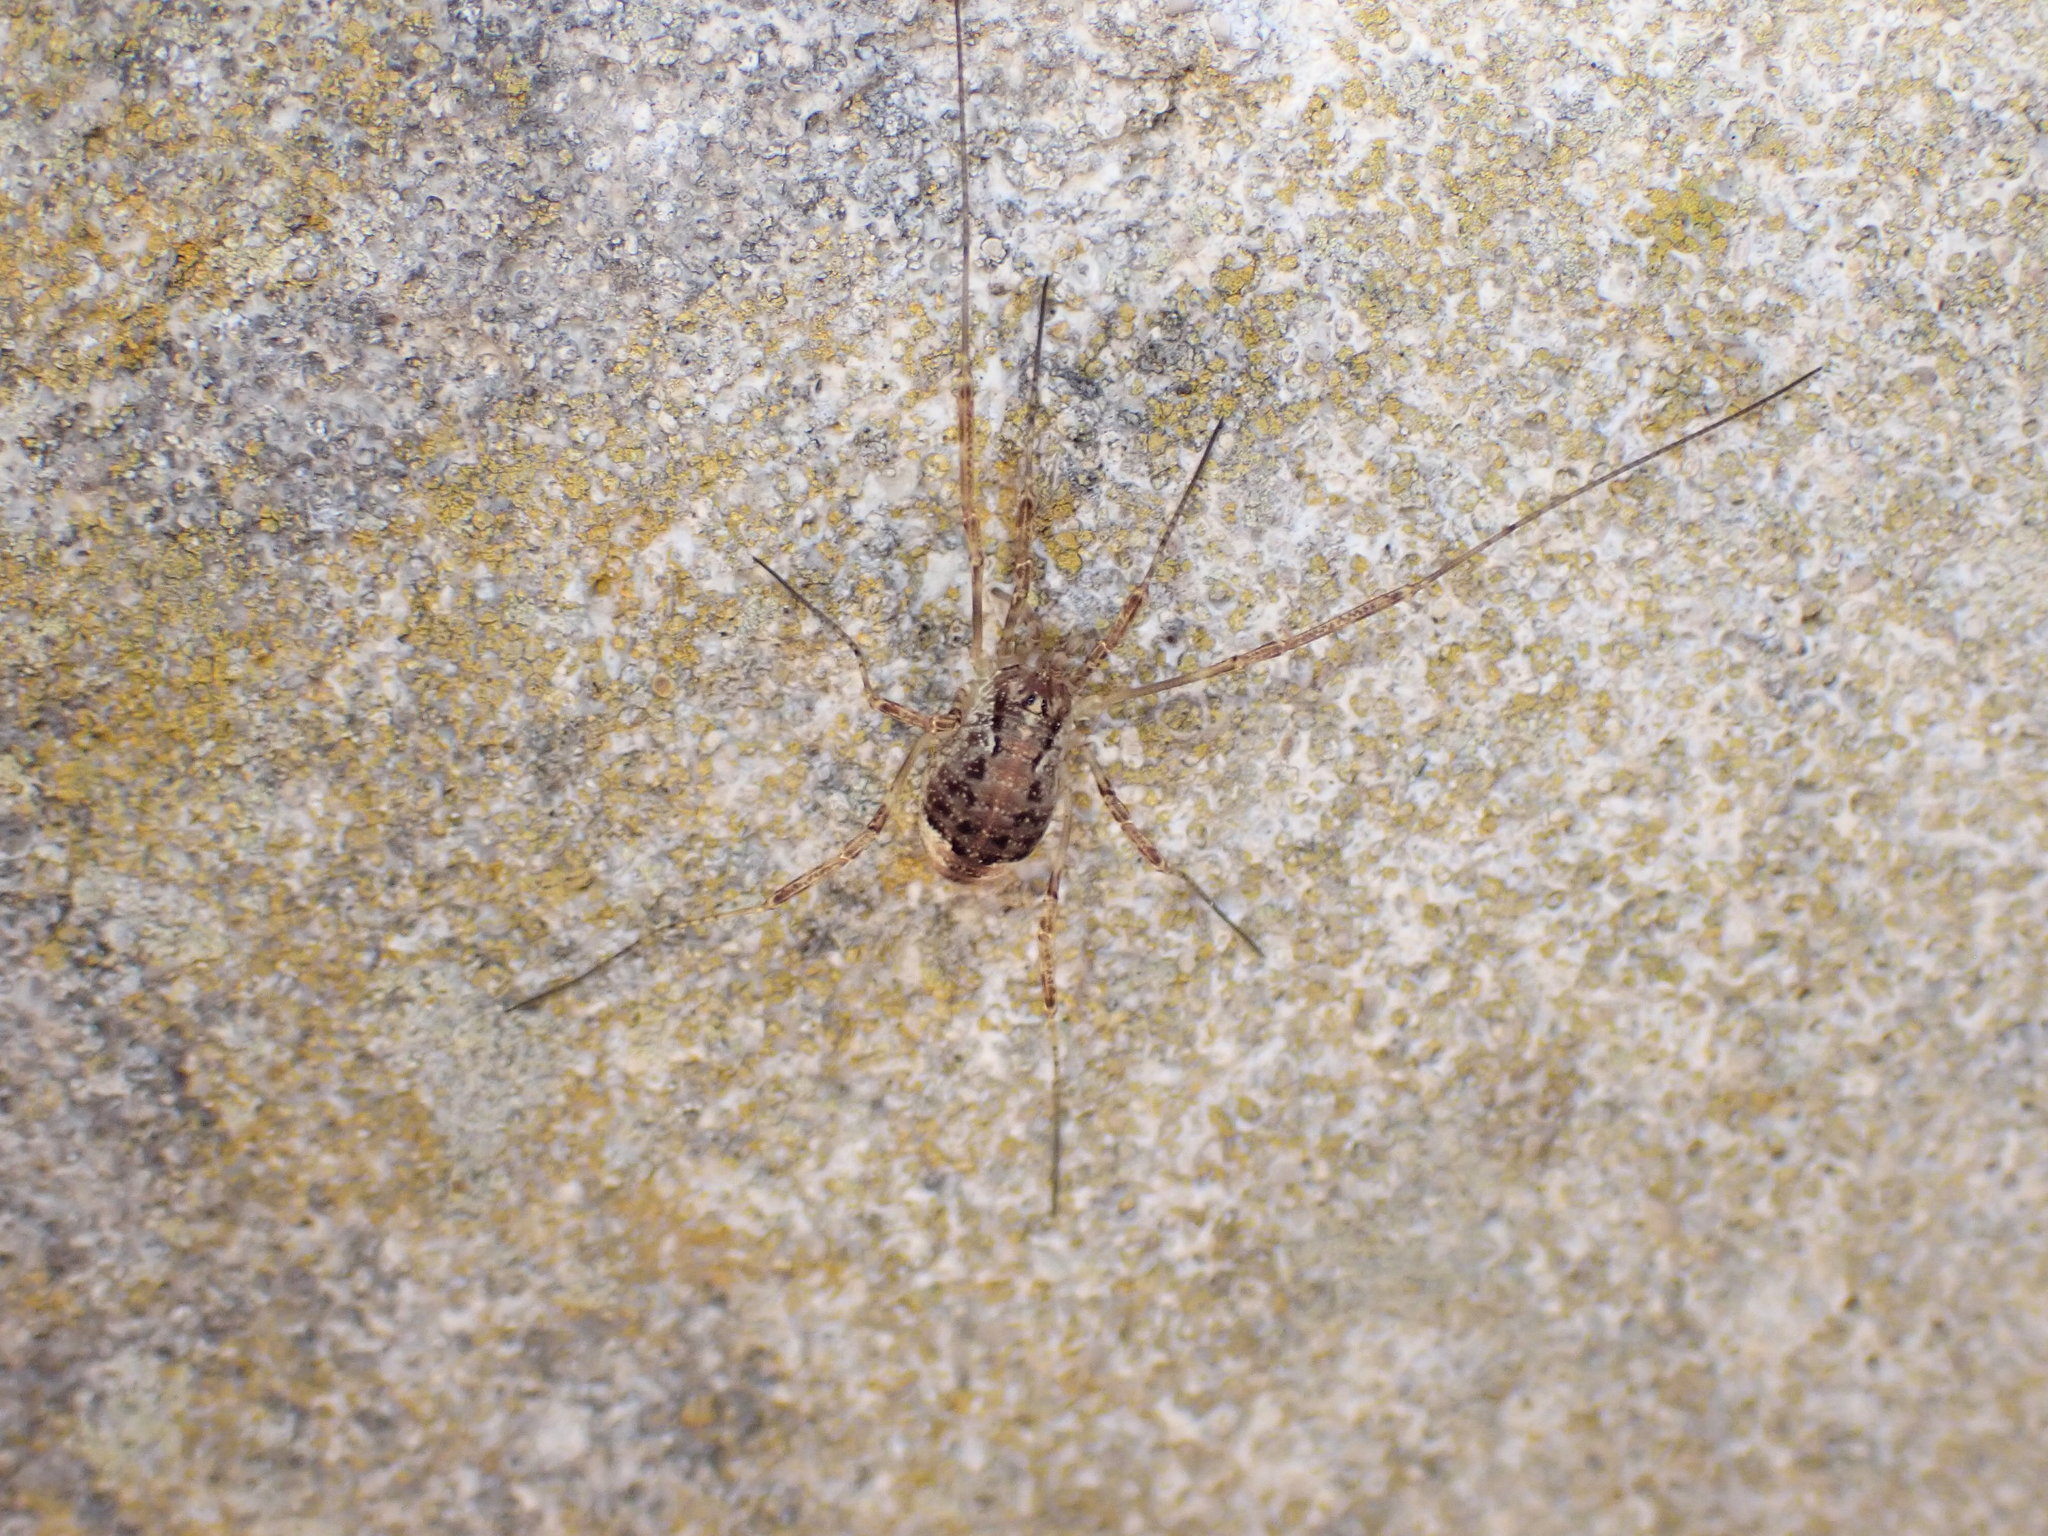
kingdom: Animalia
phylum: Arthropoda
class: Arachnida
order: Opiliones
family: Phalangiidae
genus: Paroligolophus
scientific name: Paroligolophus agrestis
